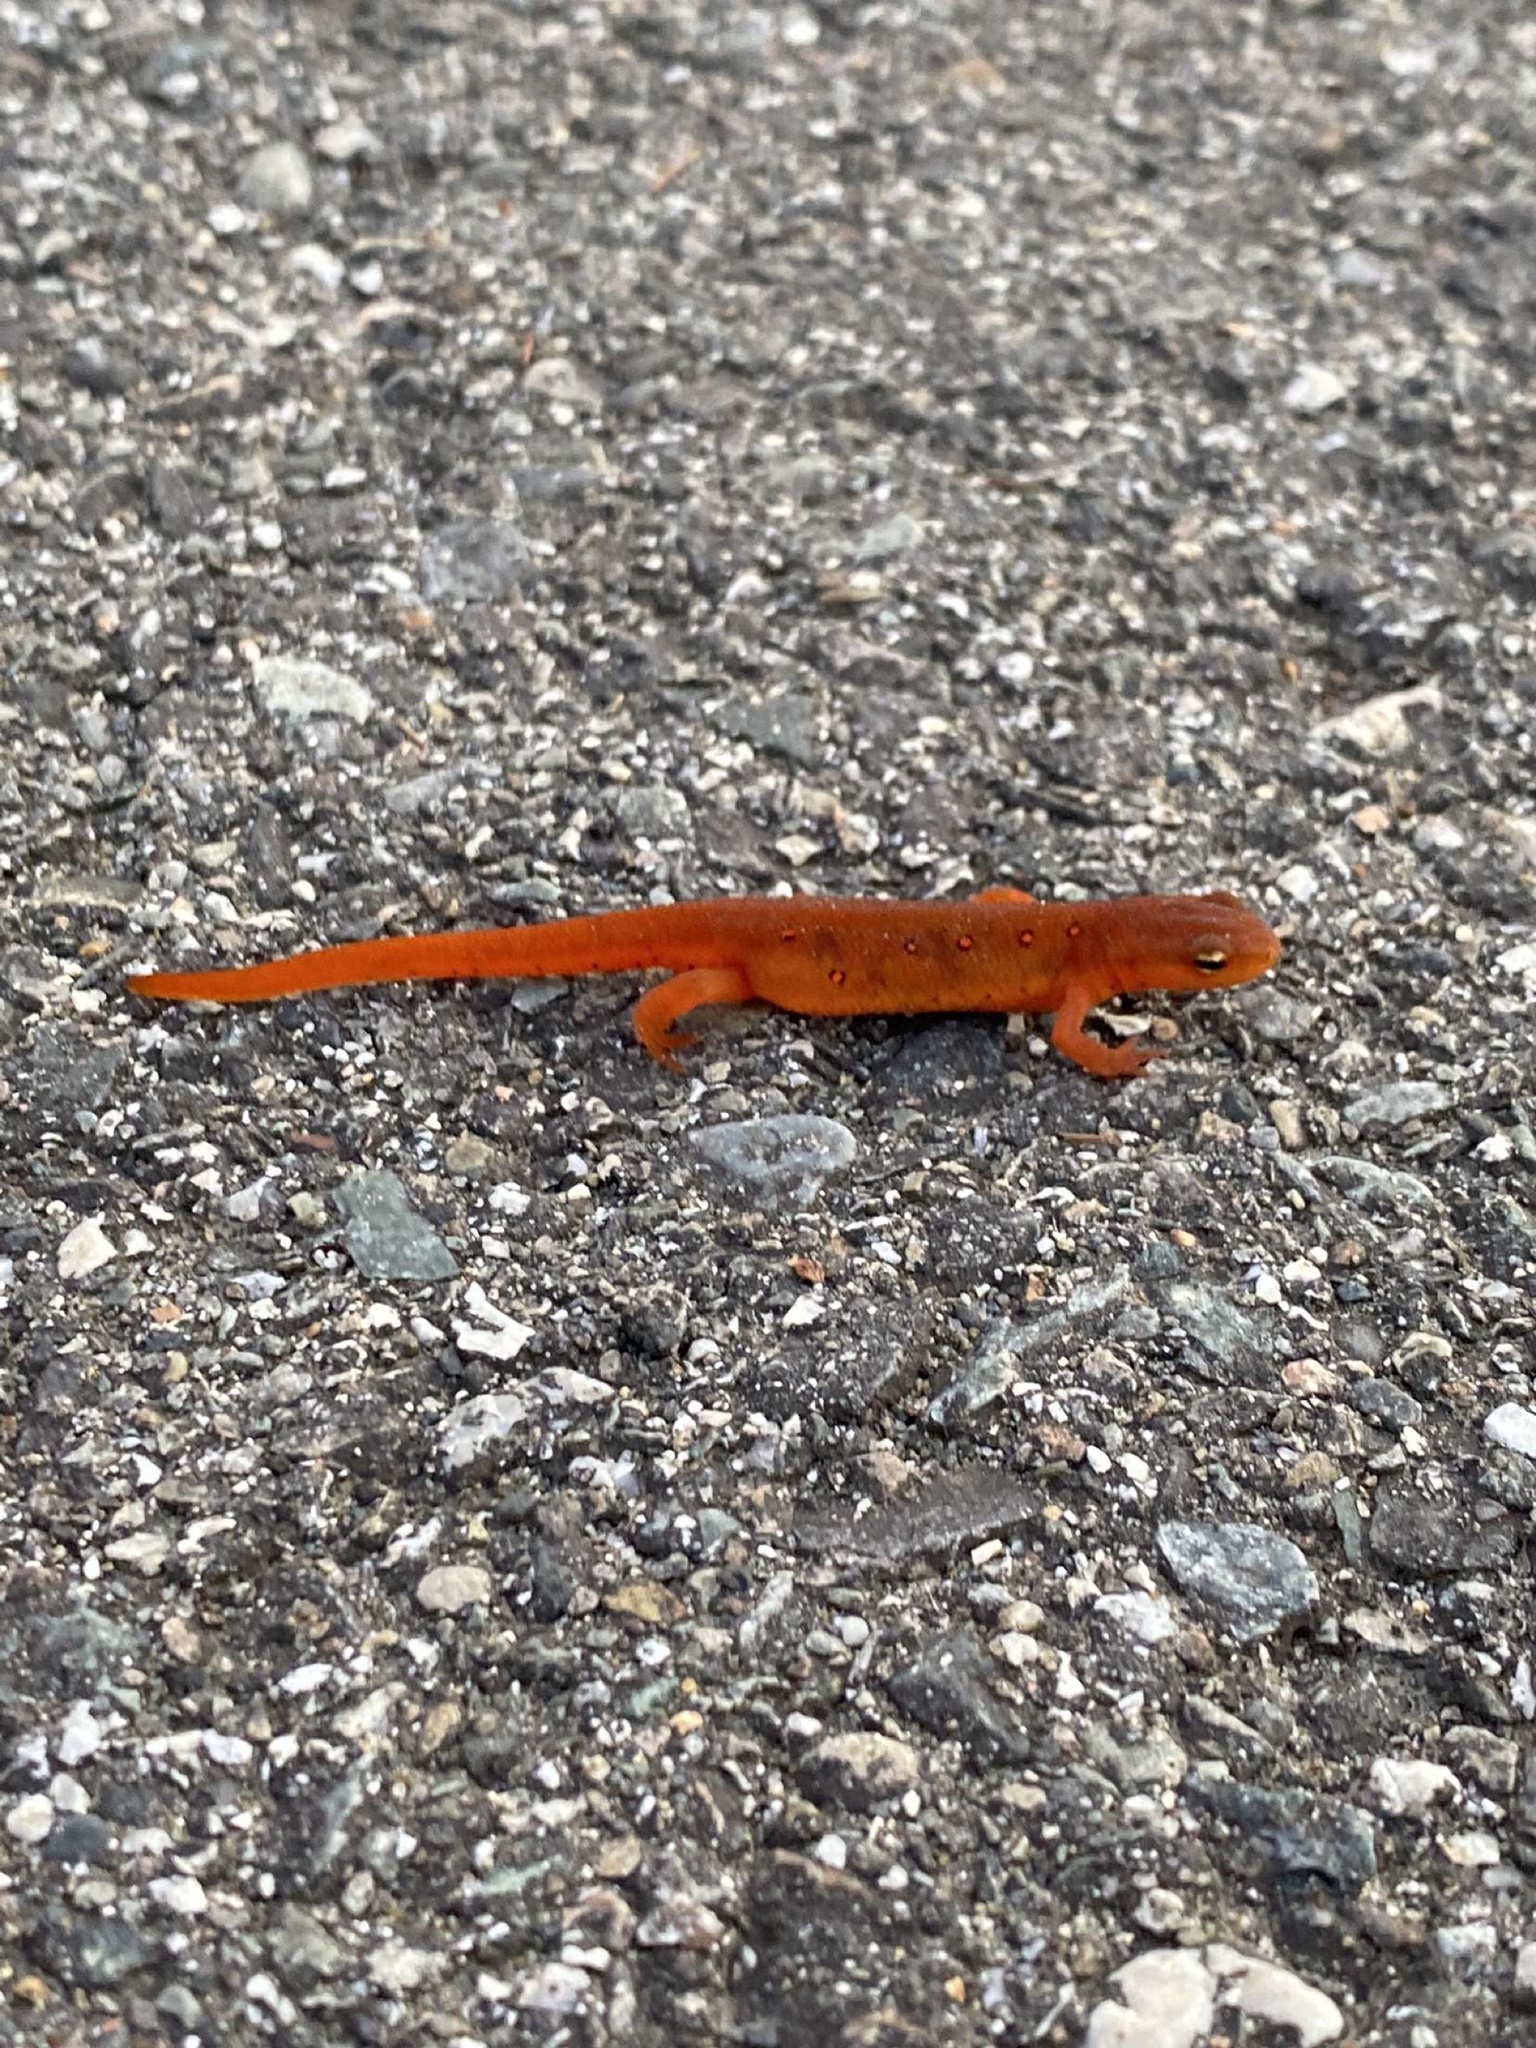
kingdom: Animalia
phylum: Chordata
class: Amphibia
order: Caudata
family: Salamandridae
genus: Notophthalmus
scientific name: Notophthalmus viridescens
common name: Eastern newt
